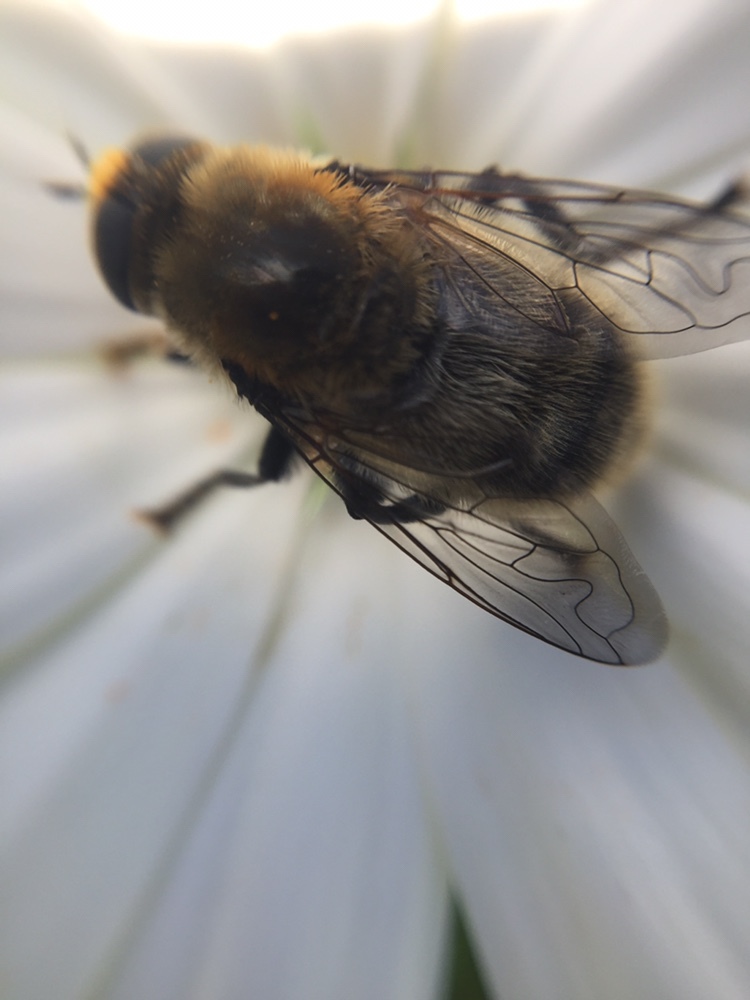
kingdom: Animalia
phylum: Arthropoda
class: Insecta
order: Diptera
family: Syrphidae
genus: Merodon
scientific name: Merodon equestris
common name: Greater bulb-fly
